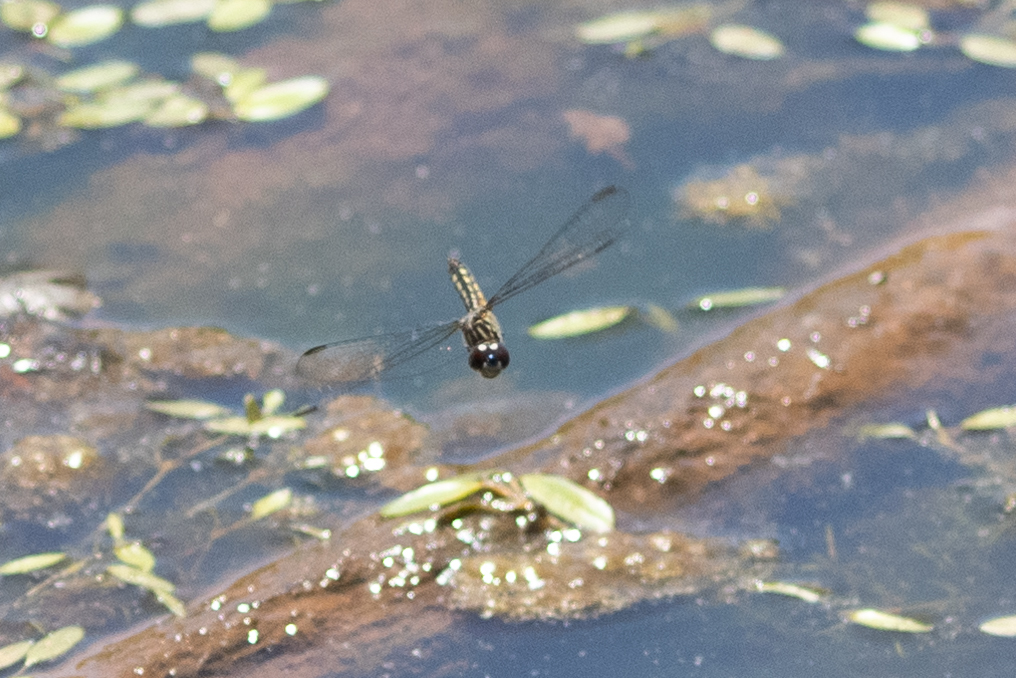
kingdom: Animalia
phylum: Arthropoda
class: Insecta
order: Odonata
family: Libellulidae
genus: Pachydiplax
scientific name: Pachydiplax longipennis
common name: Blue dasher
